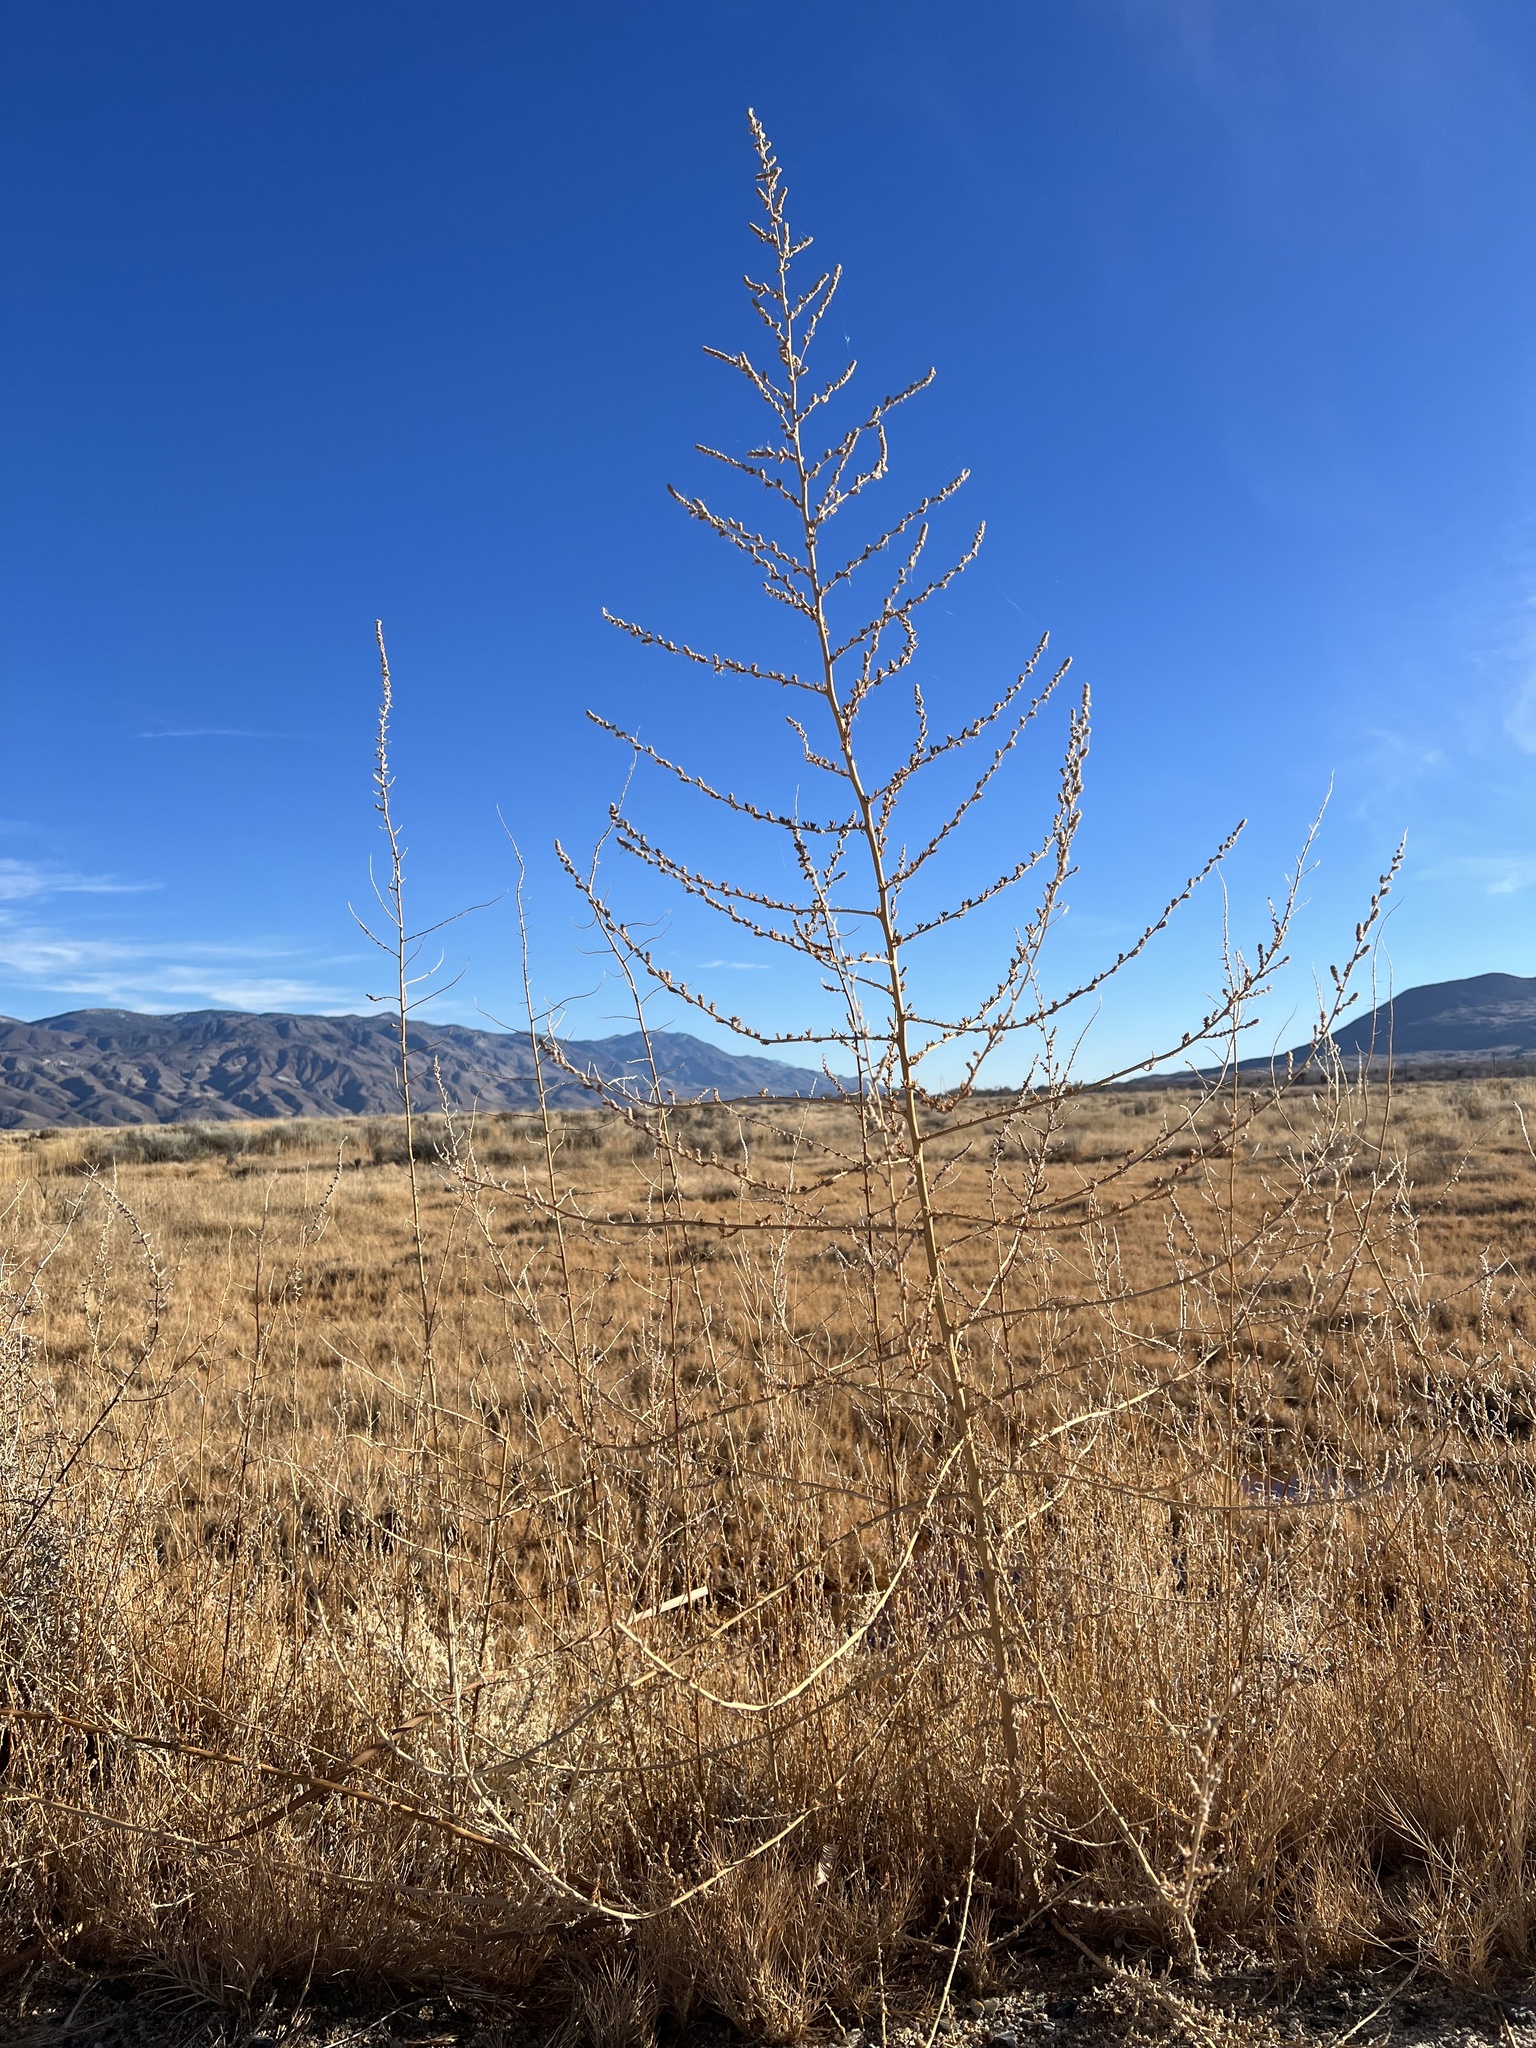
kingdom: Plantae
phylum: Tracheophyta
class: Magnoliopsida
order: Caryophyllales
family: Amaranthaceae
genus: Bassia
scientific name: Bassia hyssopifolia
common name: Fivehorn smotherweed
